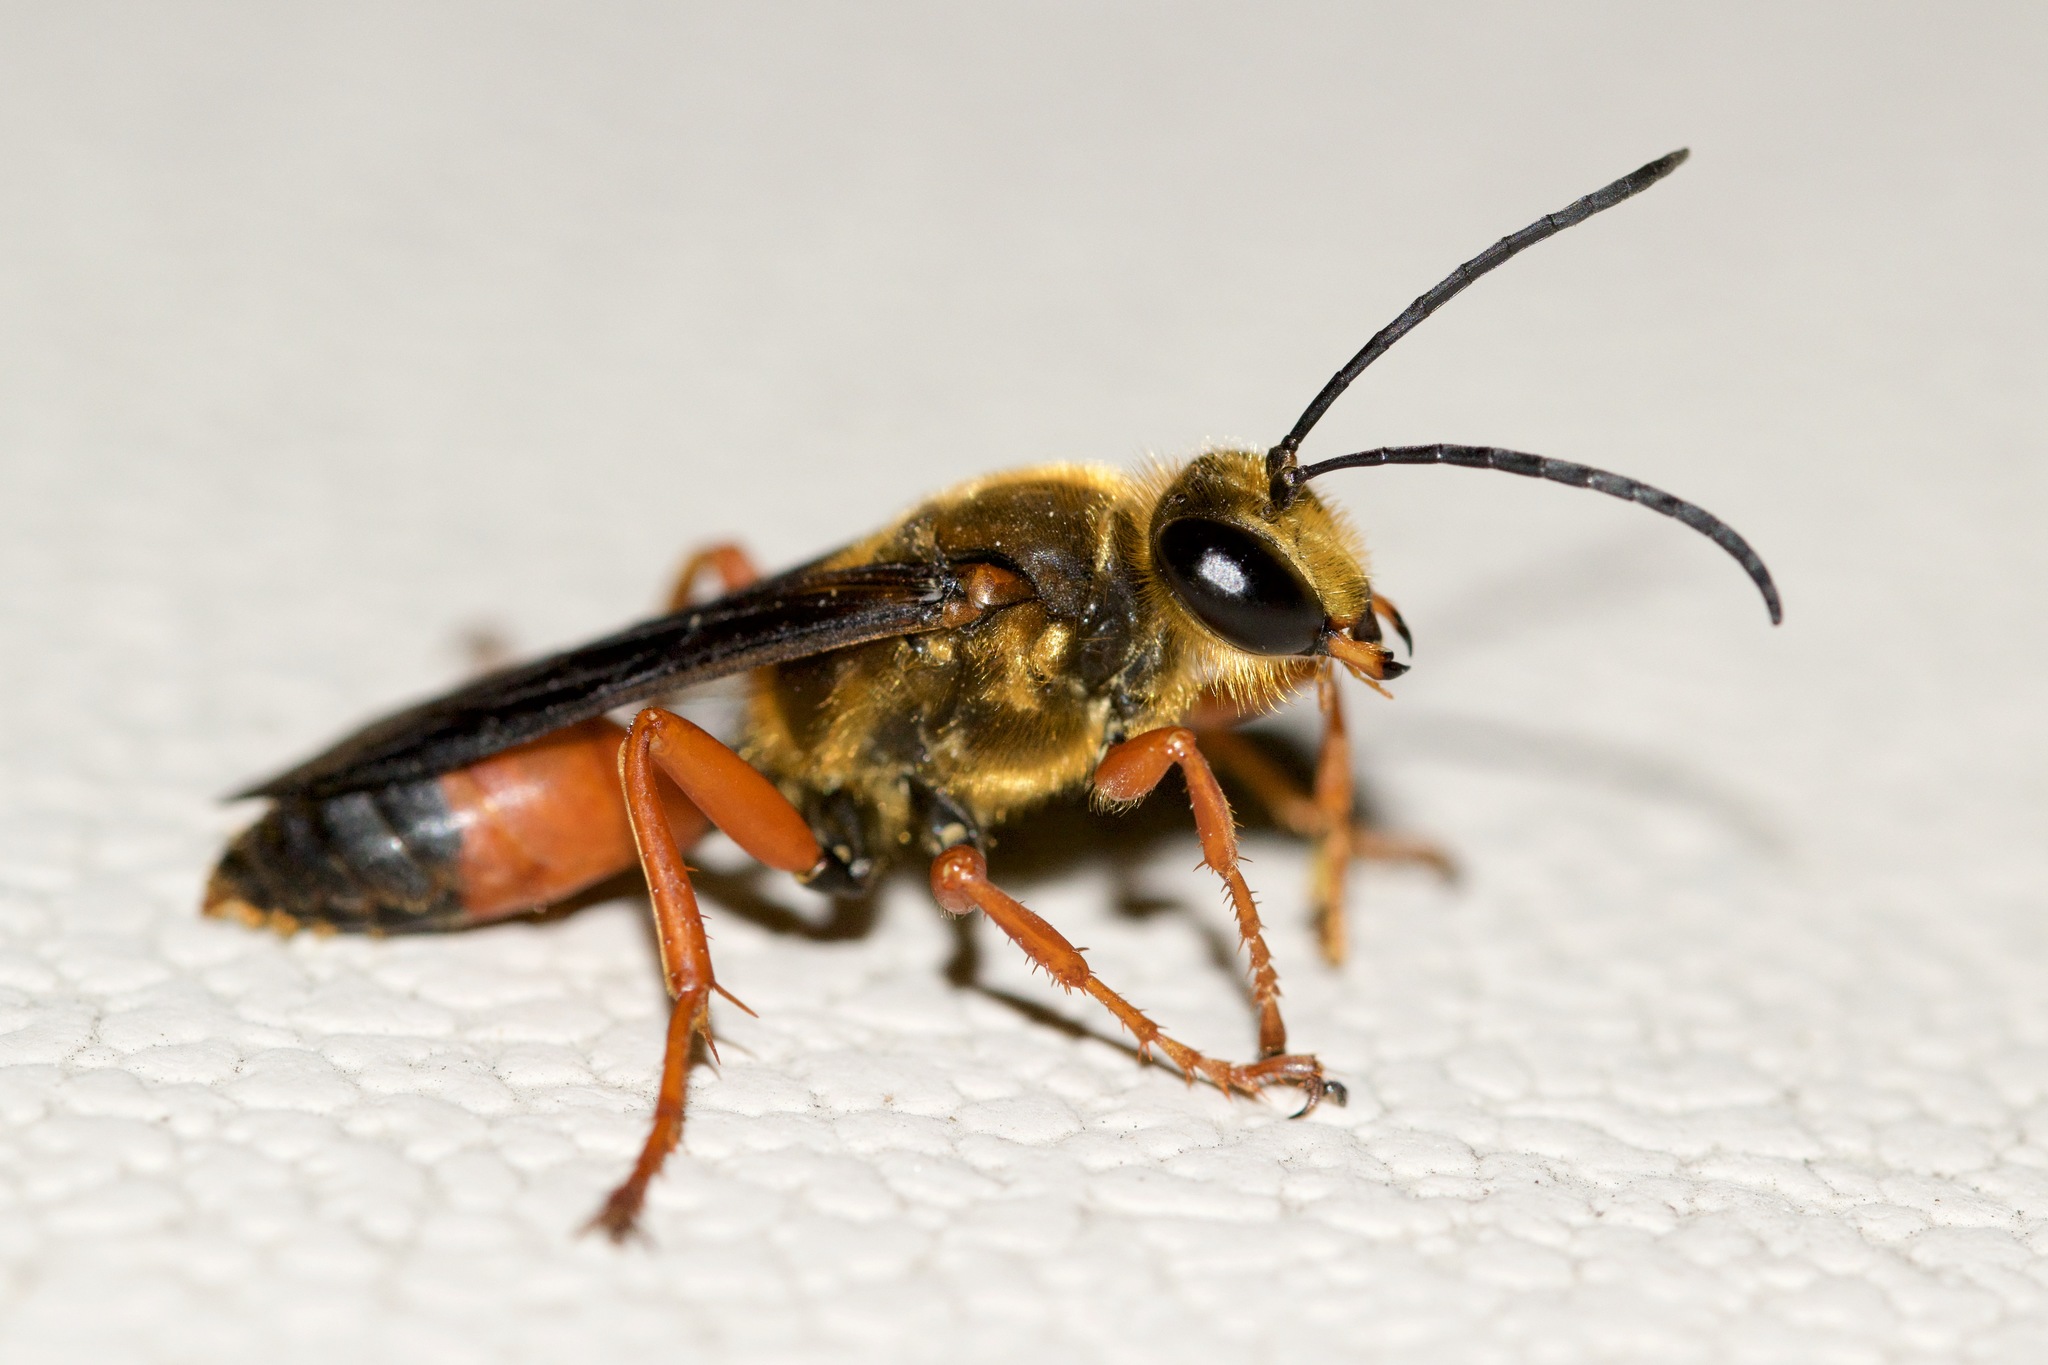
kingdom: Animalia
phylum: Arthropoda
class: Insecta
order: Hymenoptera
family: Sphecidae
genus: Sphex
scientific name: Sphex ichneumoneus
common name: Great golden digger wasp
